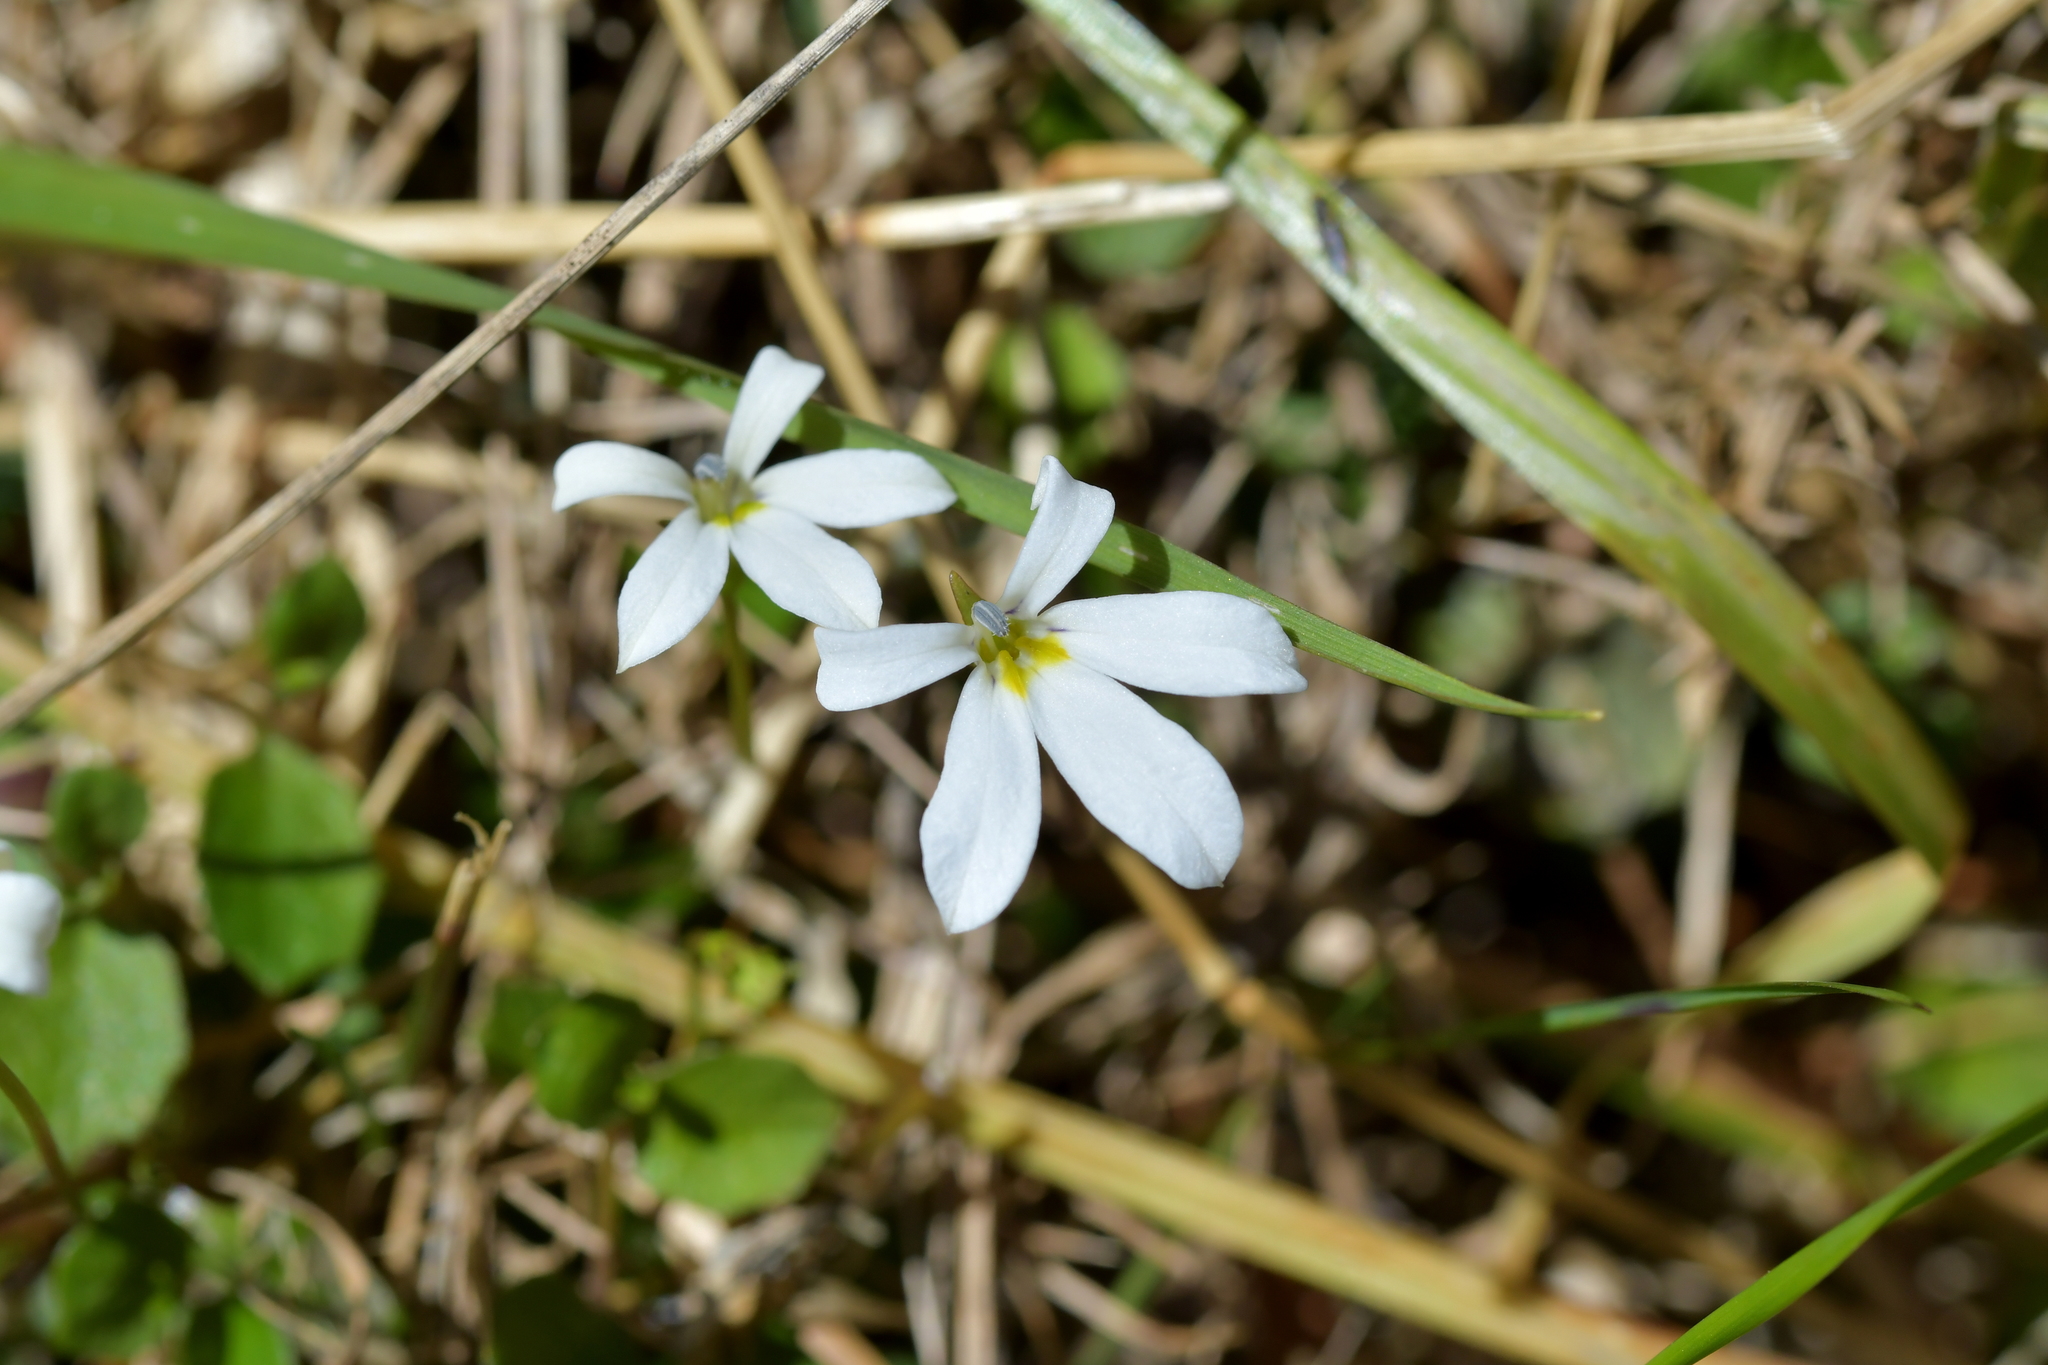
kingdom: Plantae
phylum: Tracheophyta
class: Magnoliopsida
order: Asterales
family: Campanulaceae
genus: Lobelia
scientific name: Lobelia angulata
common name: Lawn lobelia
